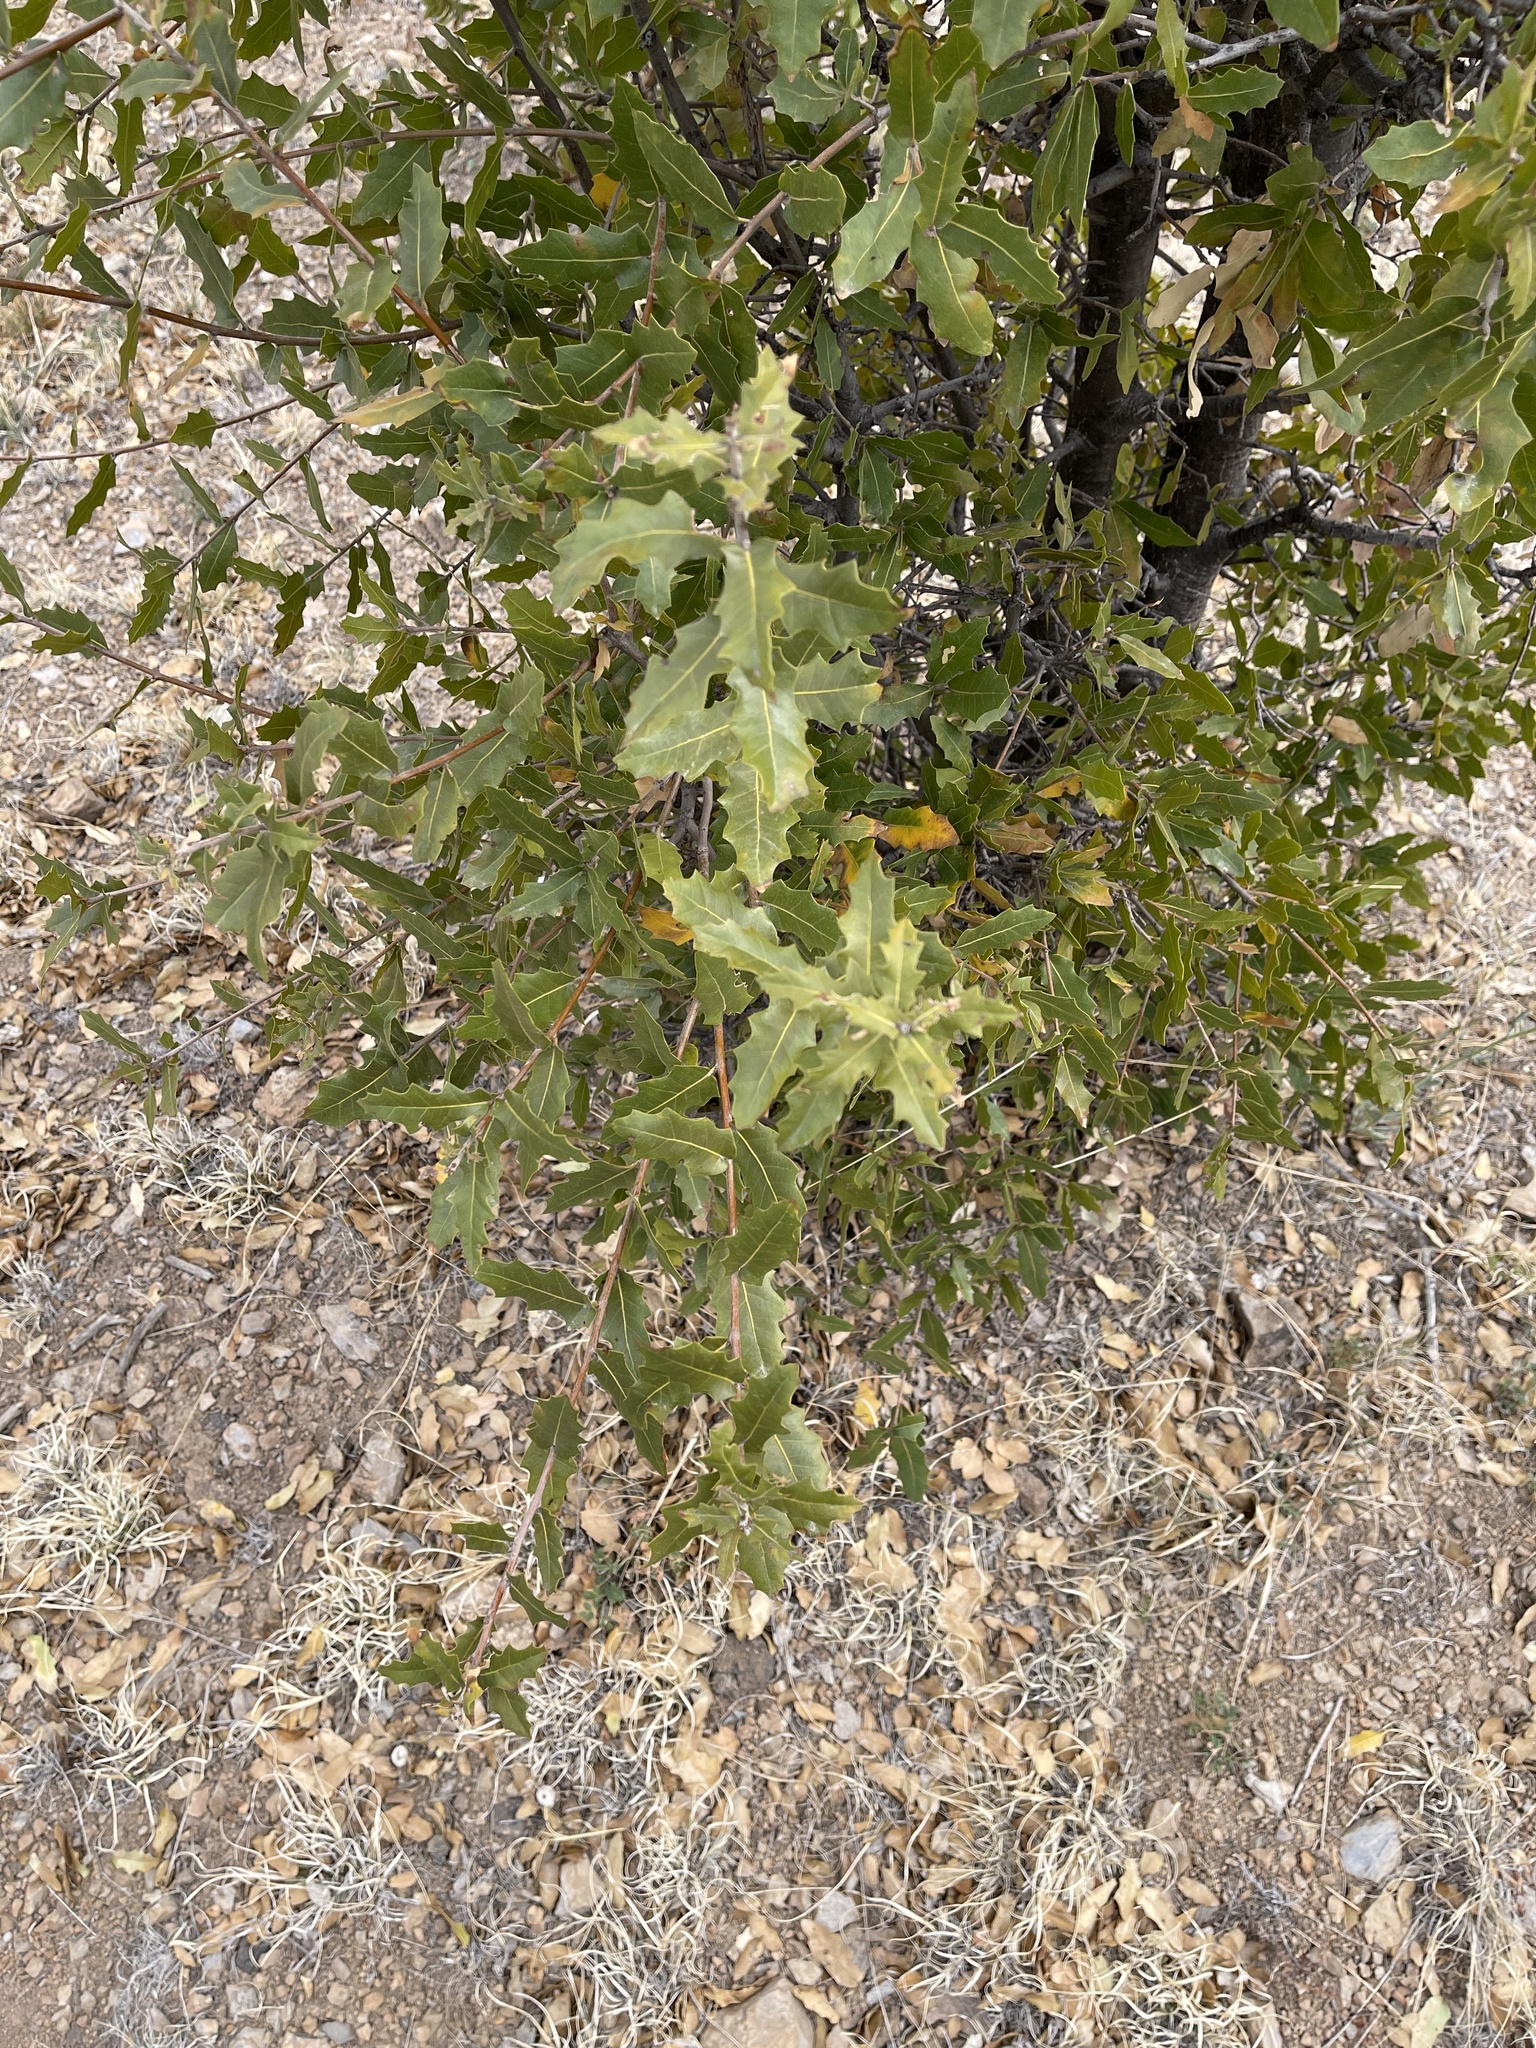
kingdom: Plantae
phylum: Tracheophyta
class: Magnoliopsida
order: Fagales
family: Fagaceae
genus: Quercus
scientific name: Quercus emoryi
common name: Emory oak
